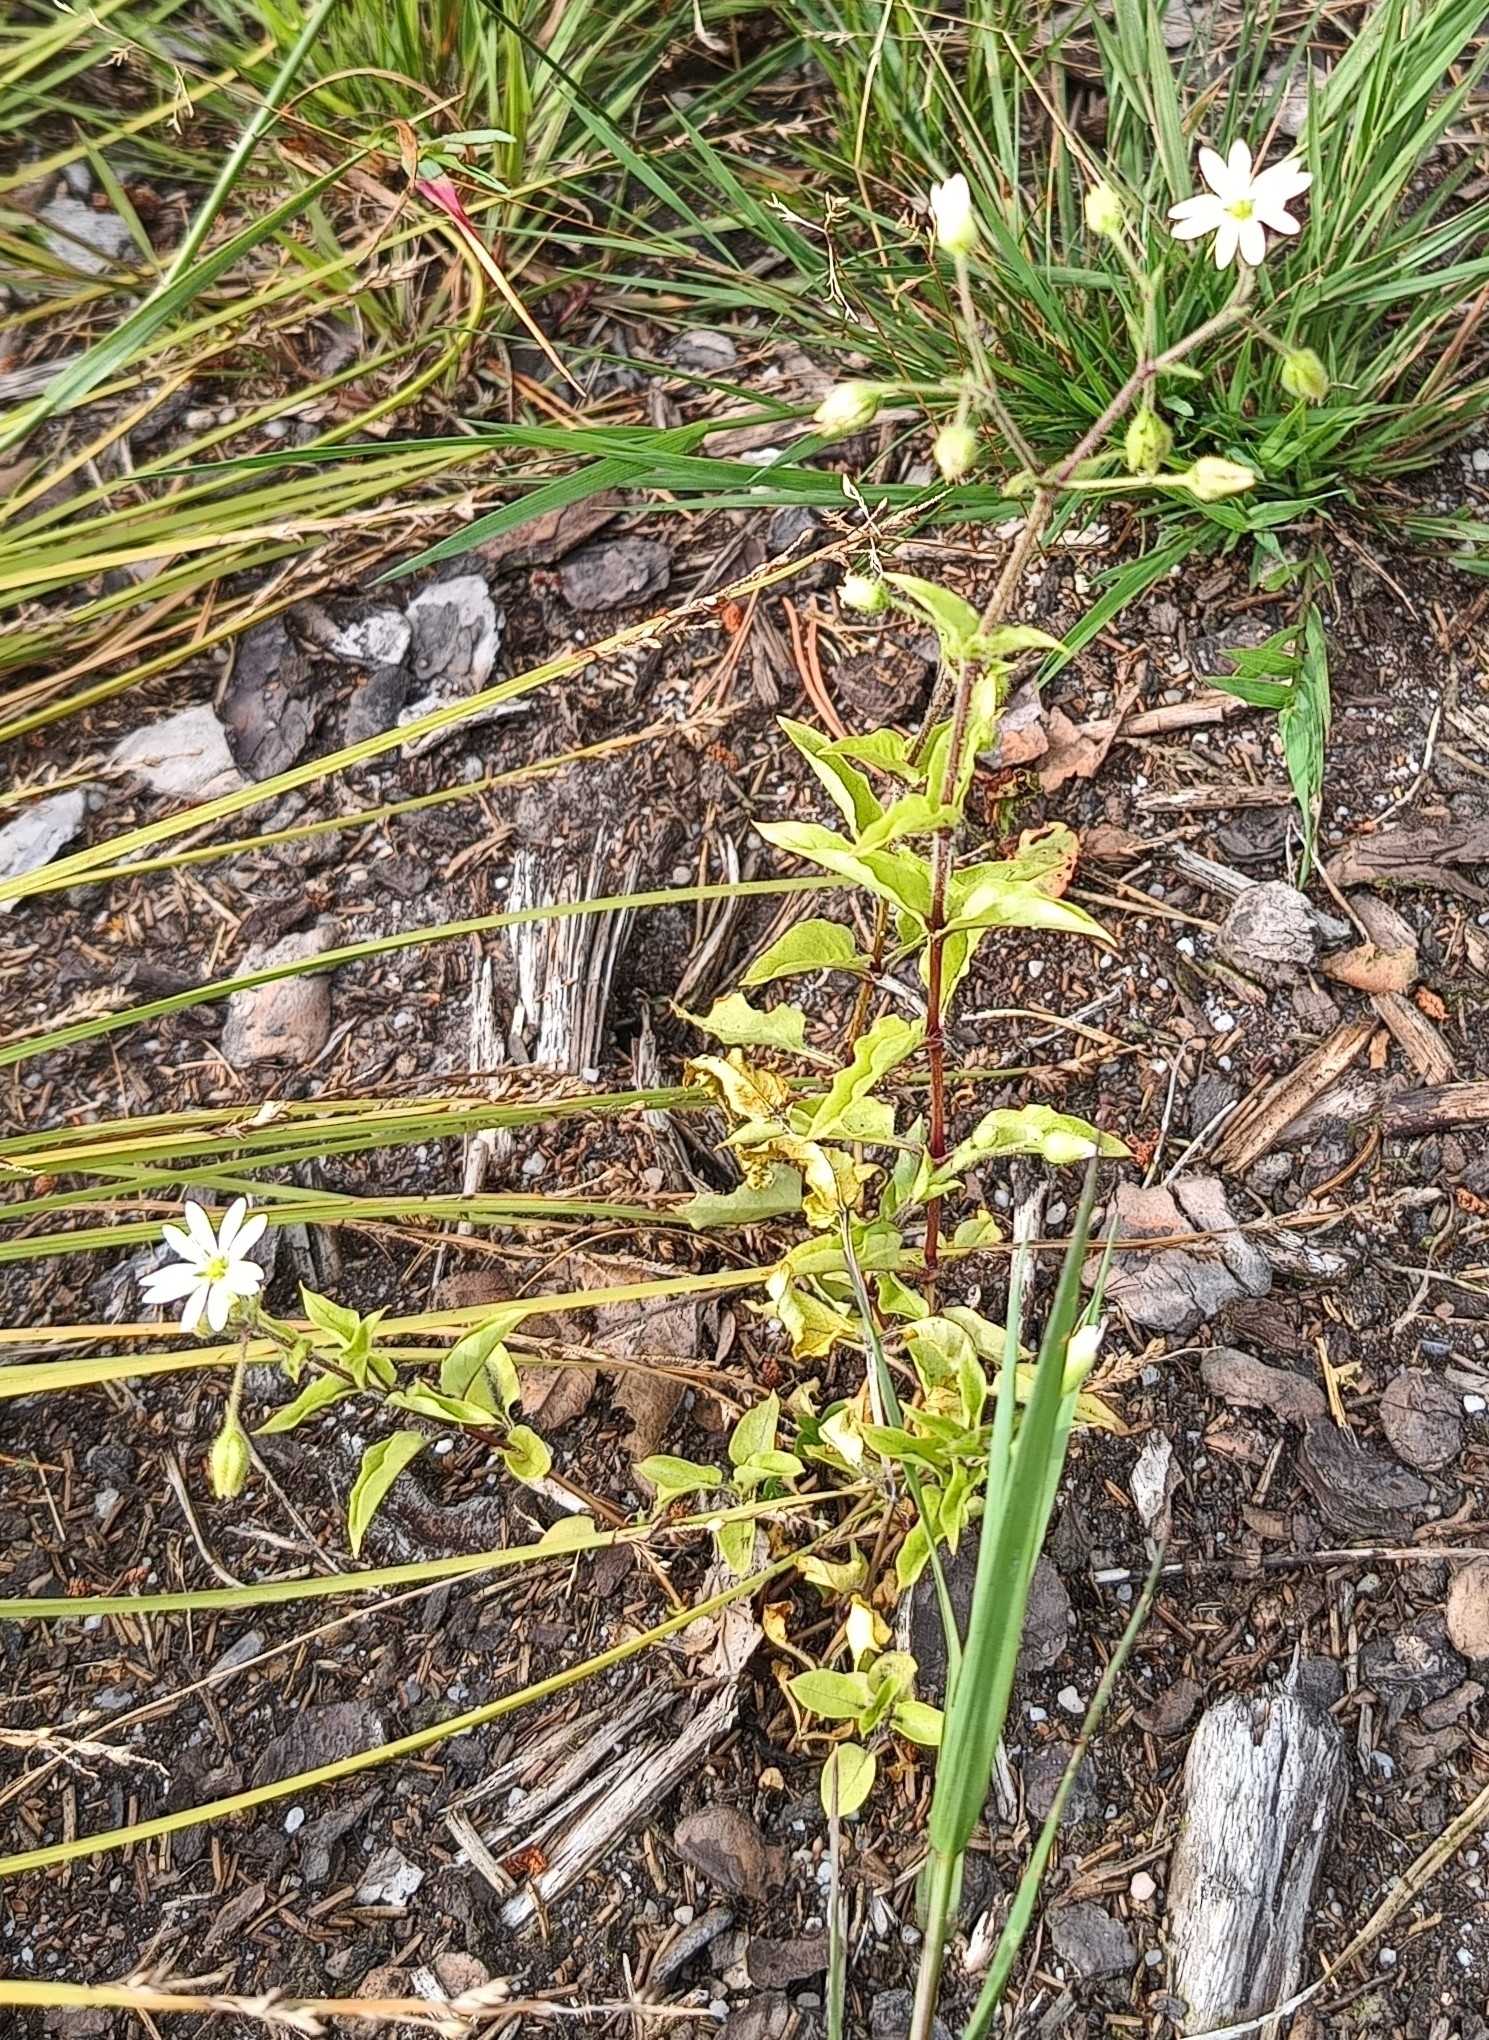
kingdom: Plantae
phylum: Tracheophyta
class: Magnoliopsida
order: Caryophyllales
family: Caryophyllaceae
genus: Stellaria
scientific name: Stellaria aquatica
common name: Water chickweed
